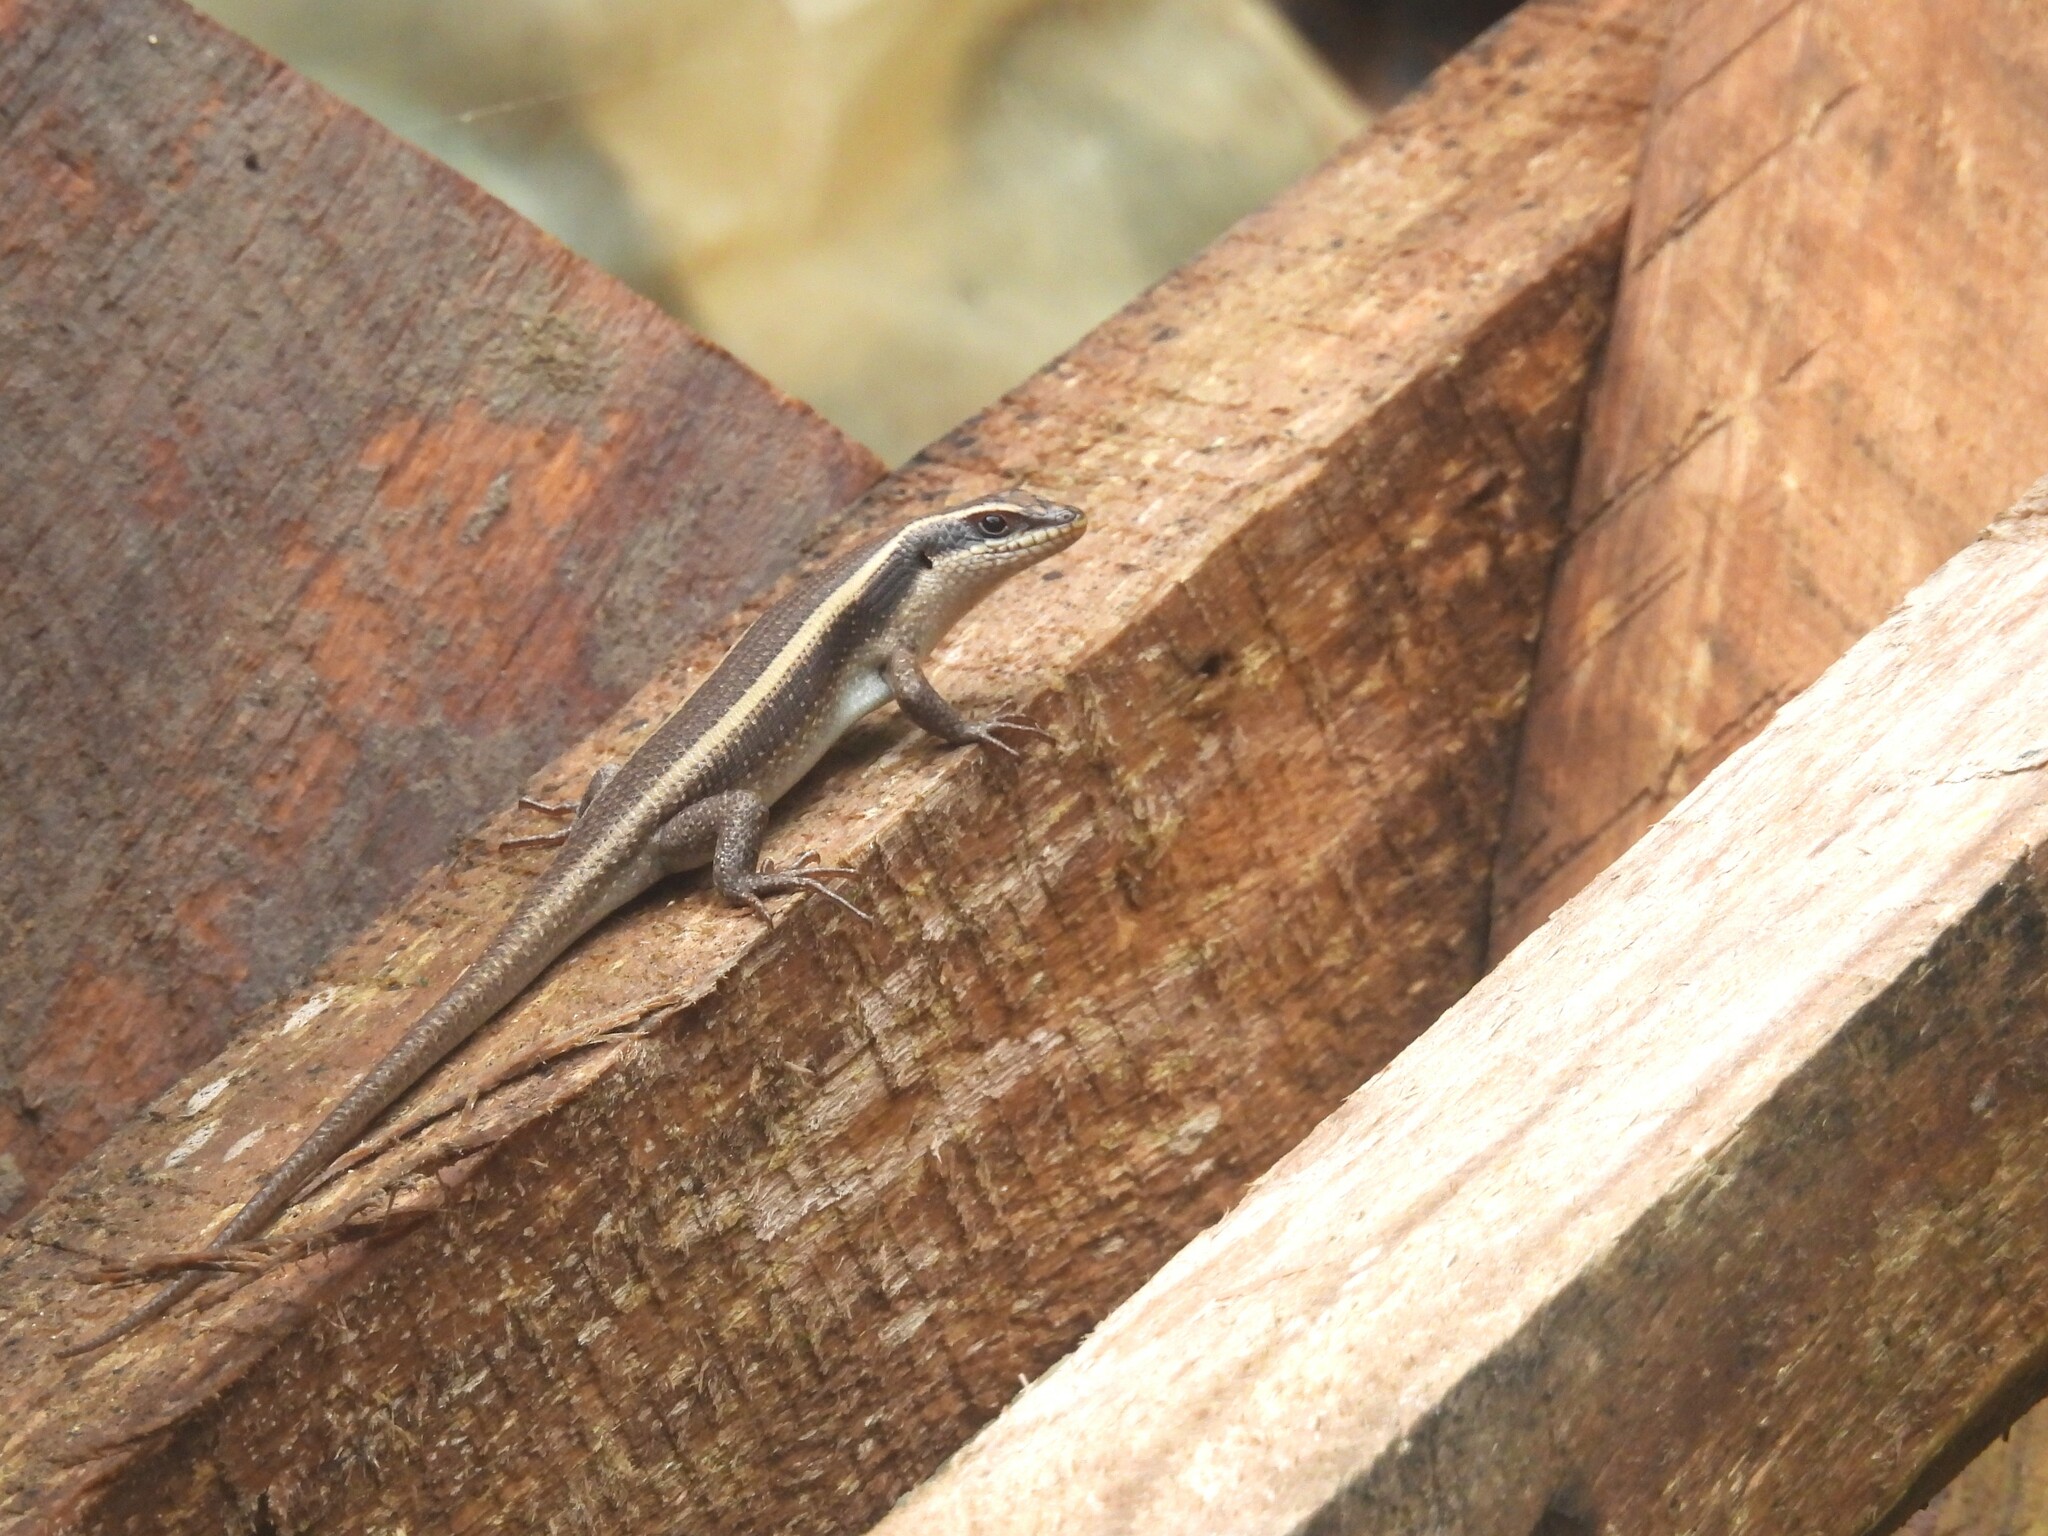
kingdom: Animalia
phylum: Chordata
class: Squamata
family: Scincidae
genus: Trachylepis
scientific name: Trachylepis striata
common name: African striped mabuya
